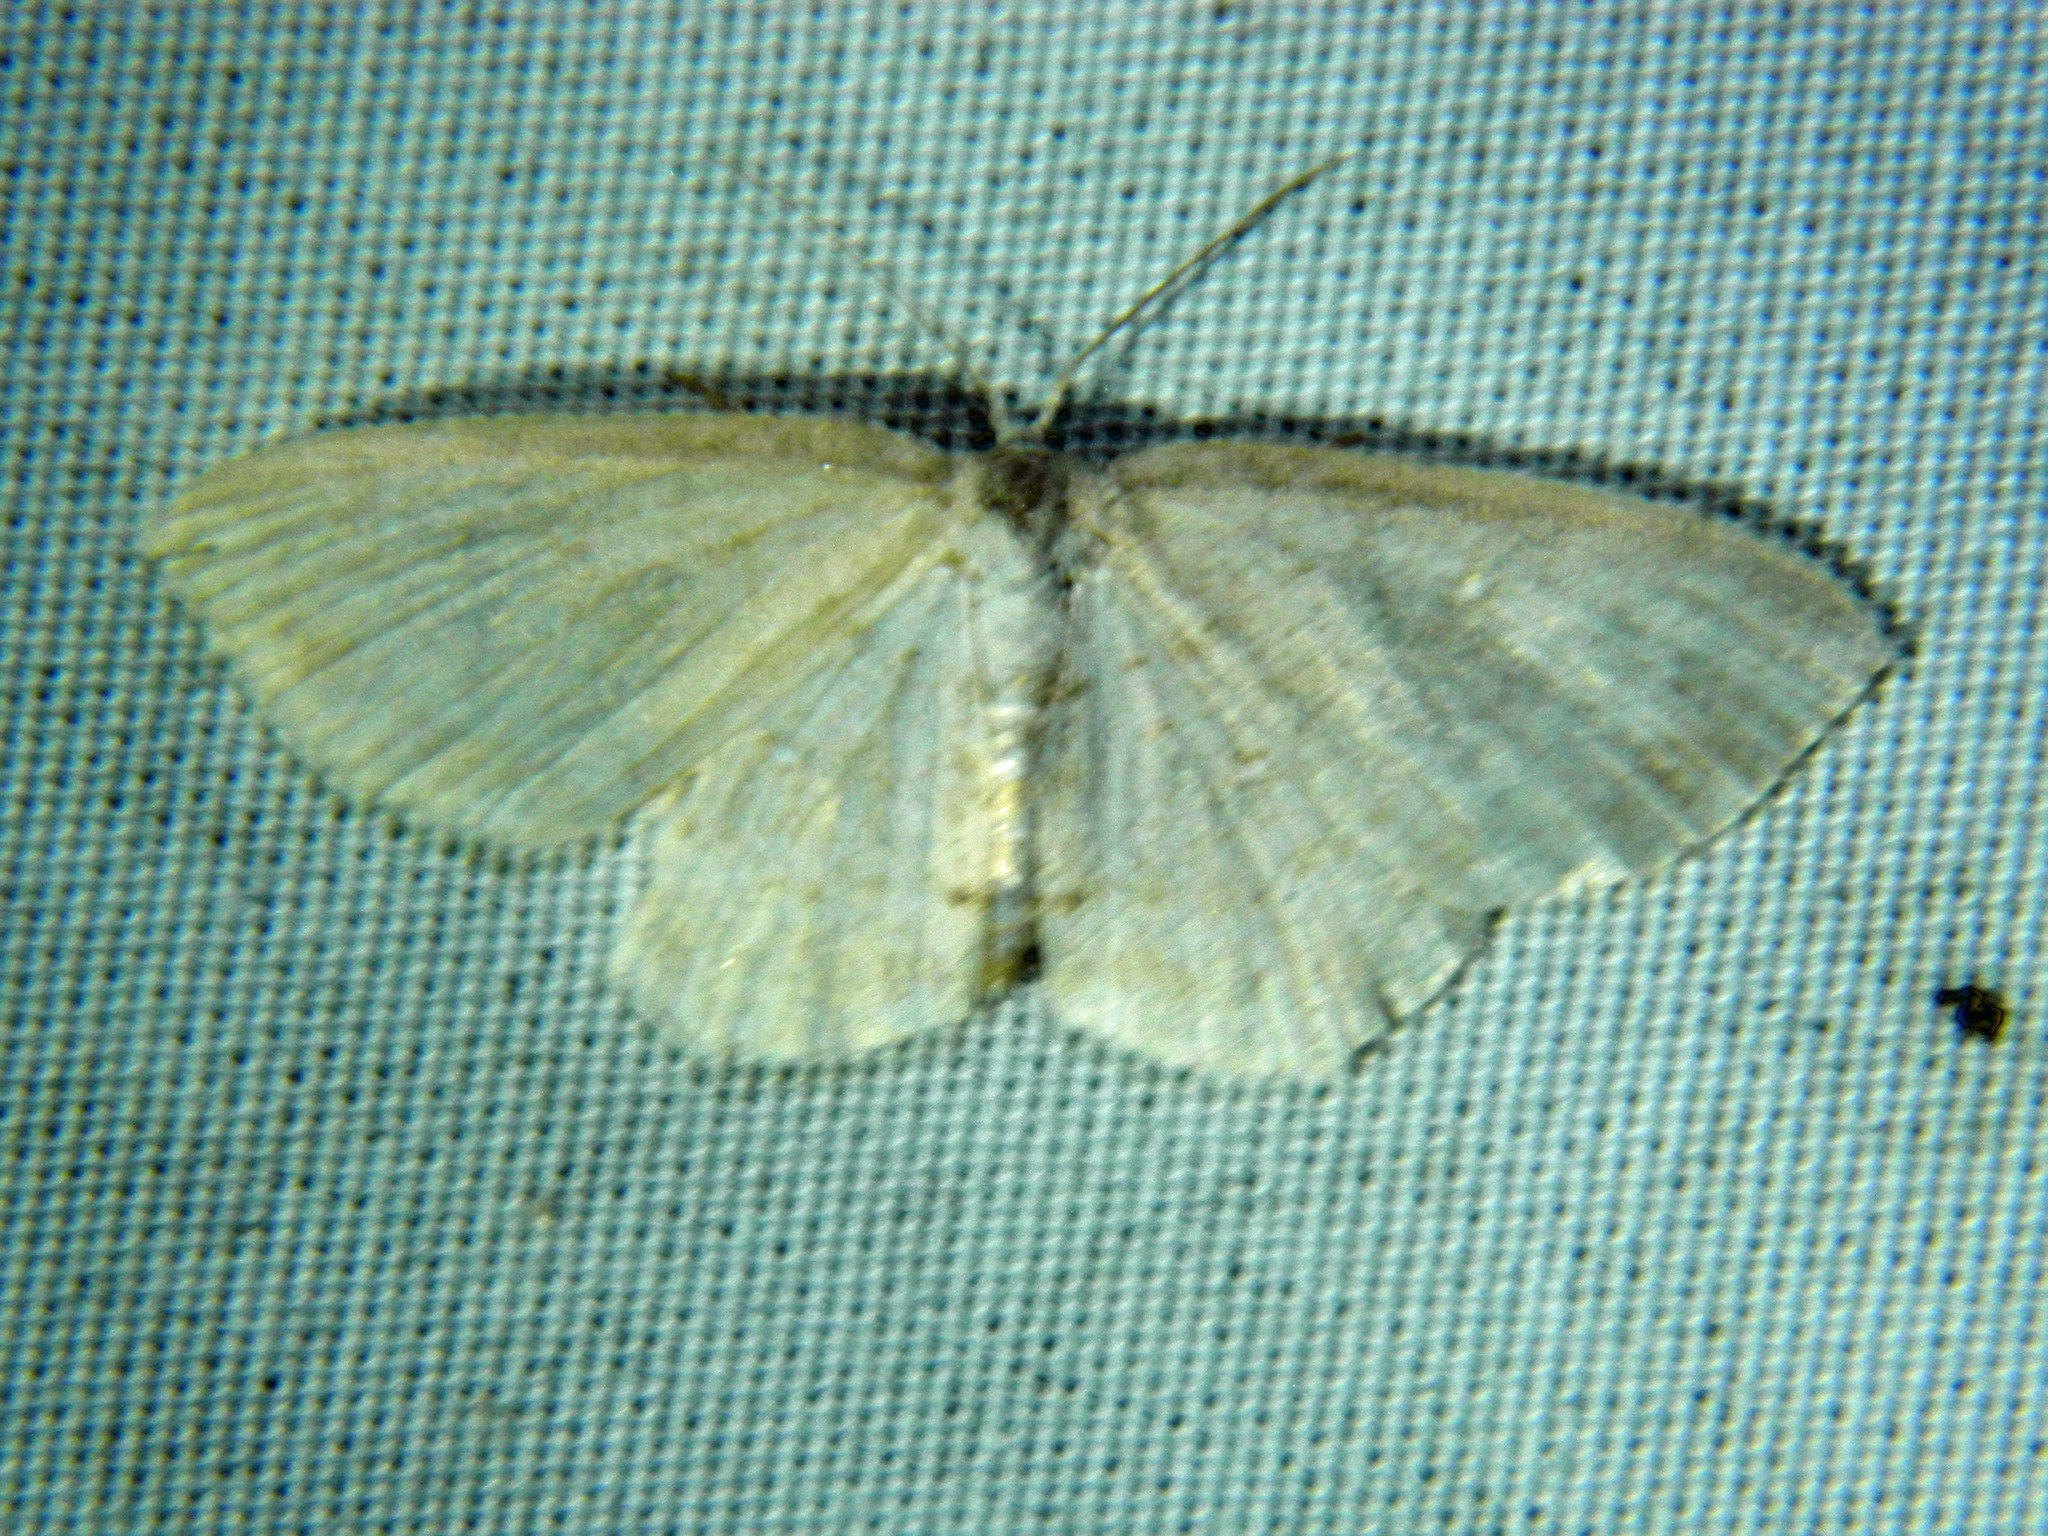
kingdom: Animalia
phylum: Arthropoda
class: Insecta
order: Lepidoptera
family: Geometridae
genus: Cyclophora
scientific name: Cyclophora pendulinaria
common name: Sweet fern geometer
